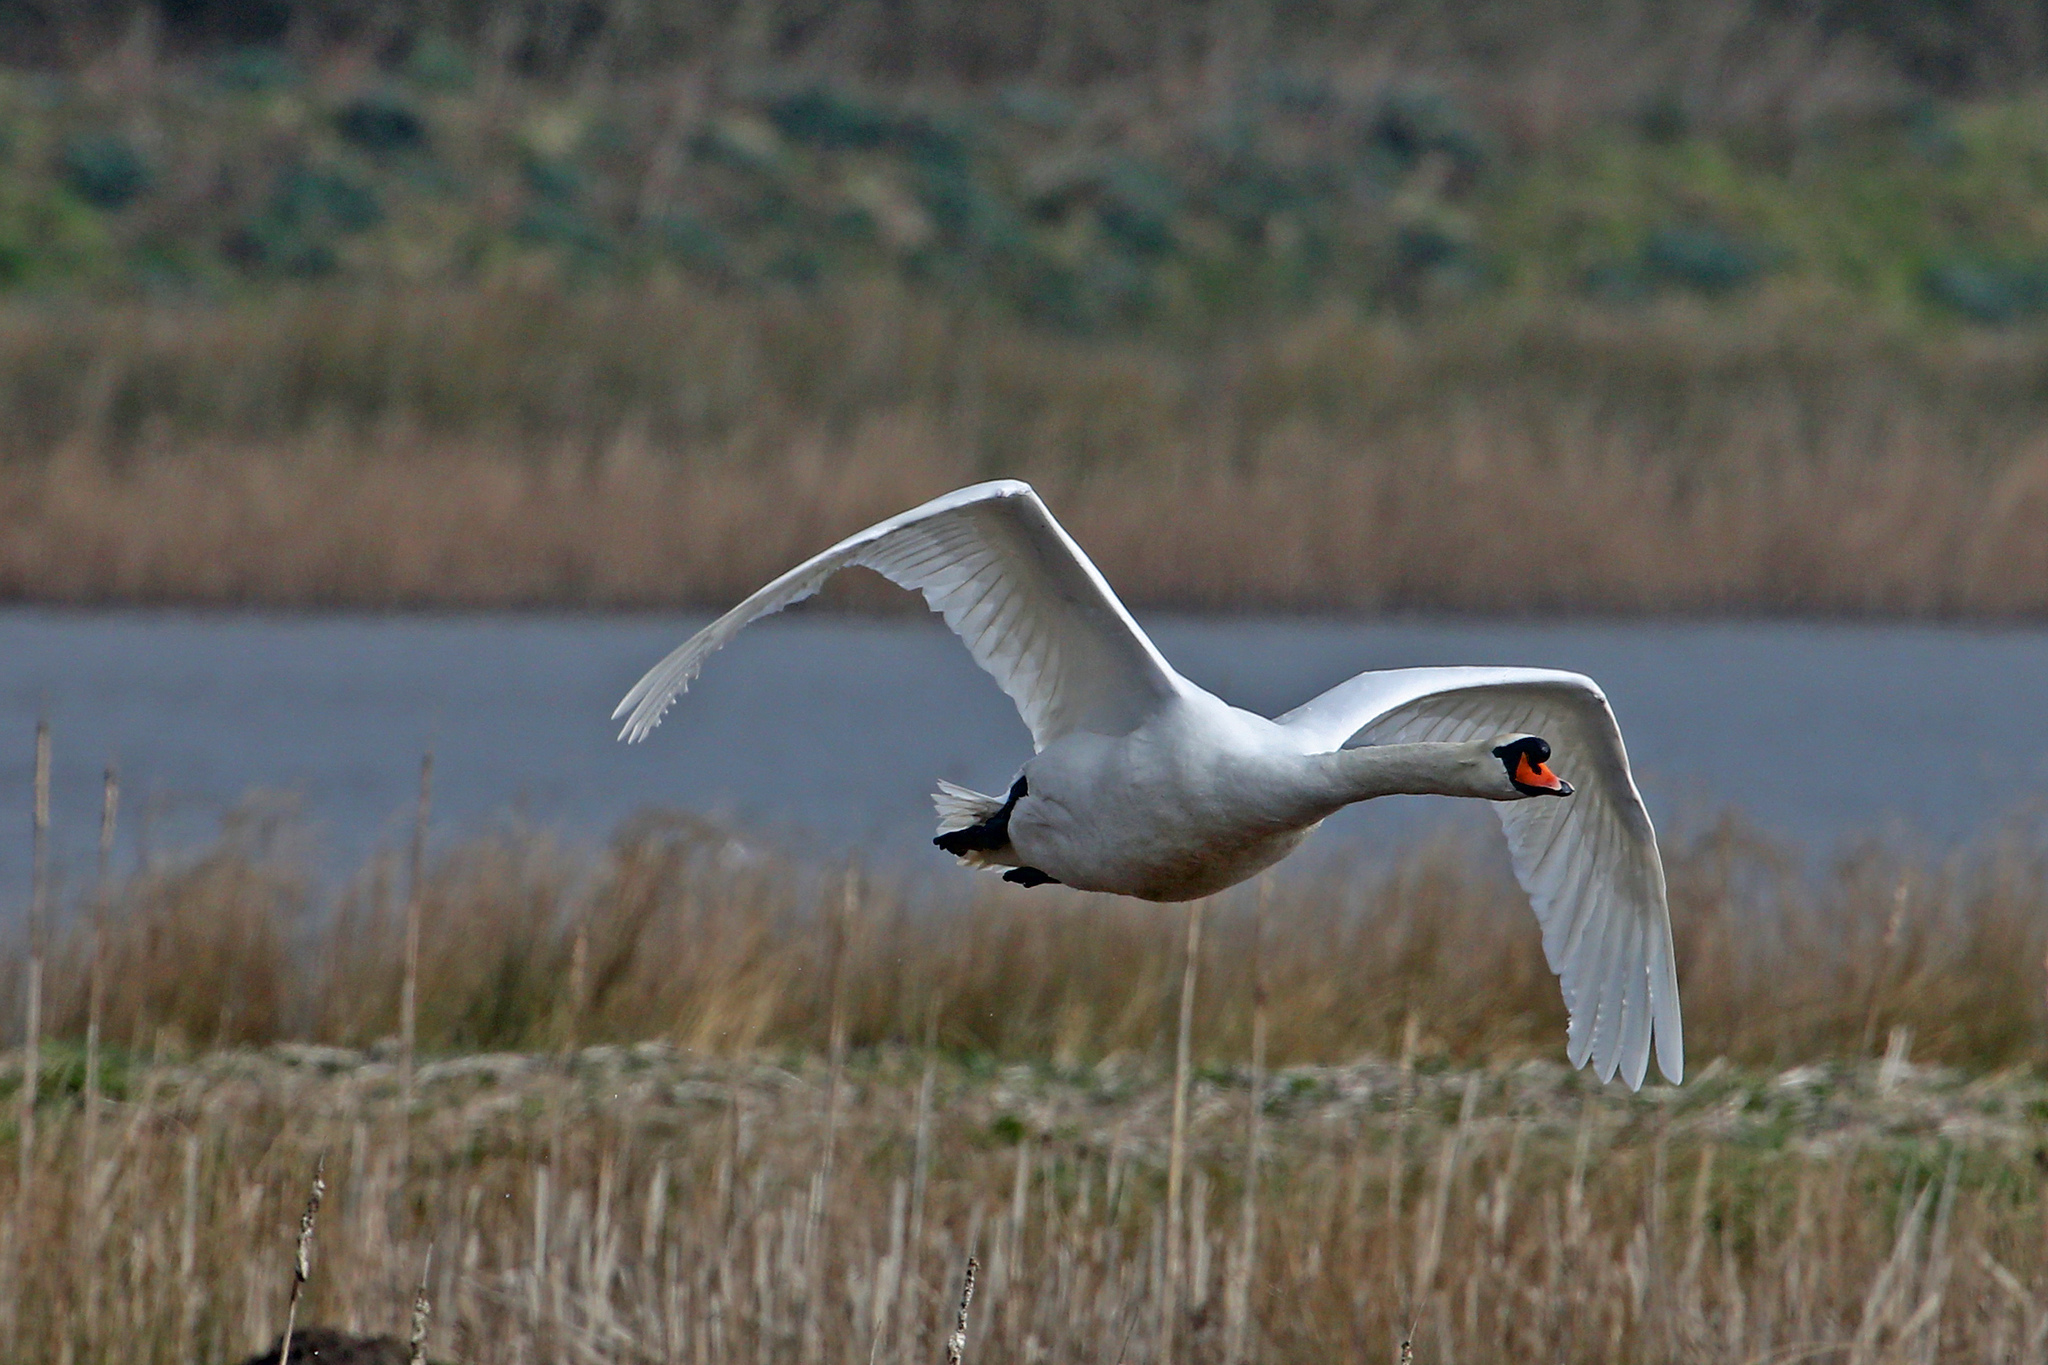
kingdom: Animalia
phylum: Chordata
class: Aves
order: Anseriformes
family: Anatidae
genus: Cygnus
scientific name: Cygnus olor
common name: Mute swan
